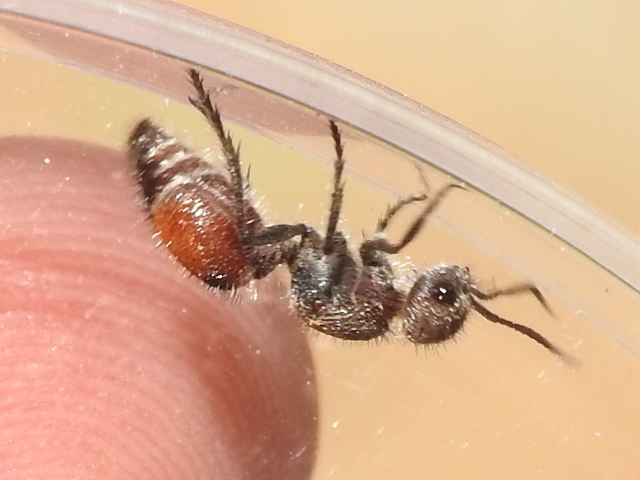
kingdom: Animalia
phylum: Arthropoda
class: Insecta
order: Hymenoptera
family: Mutillidae
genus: Dasymutilla
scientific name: Dasymutilla
